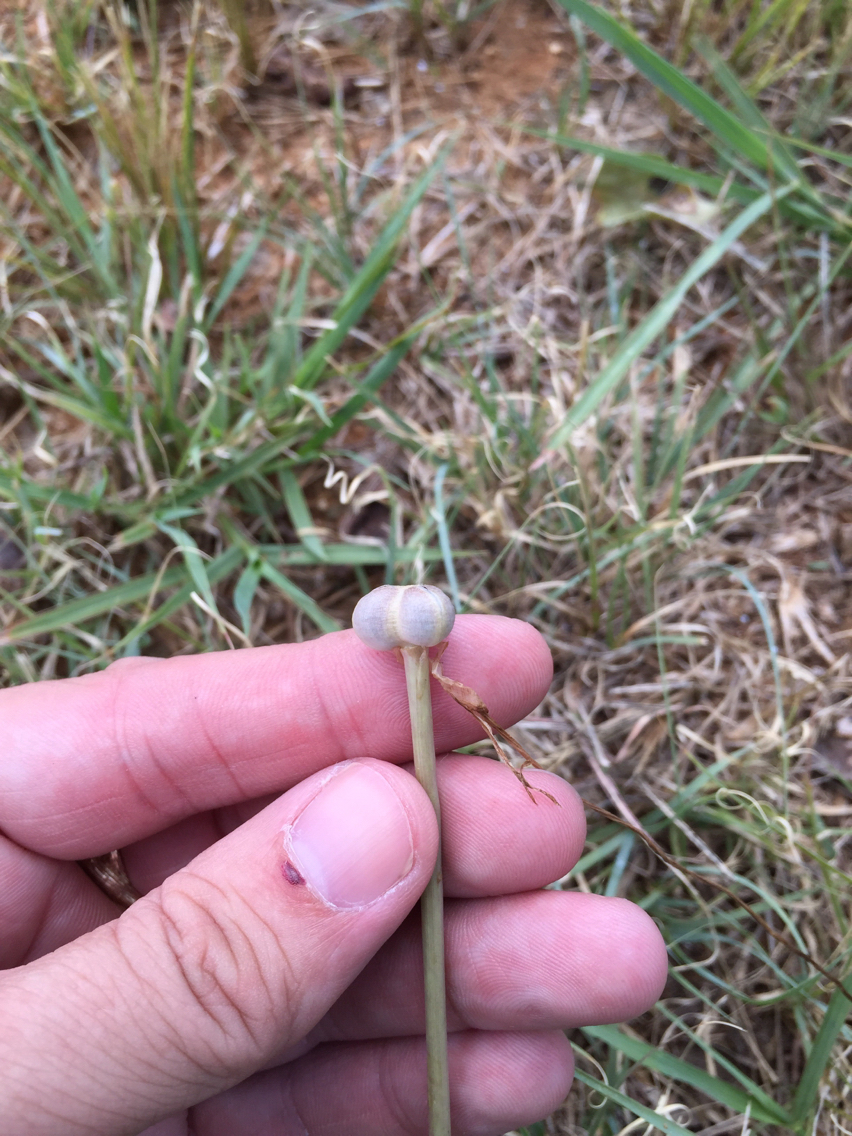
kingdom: Plantae
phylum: Tracheophyta
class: Liliopsida
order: Asparagales
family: Amaryllidaceae
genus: Zephyranthes
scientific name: Zephyranthes chlorosolen
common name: Evening rain-lily
